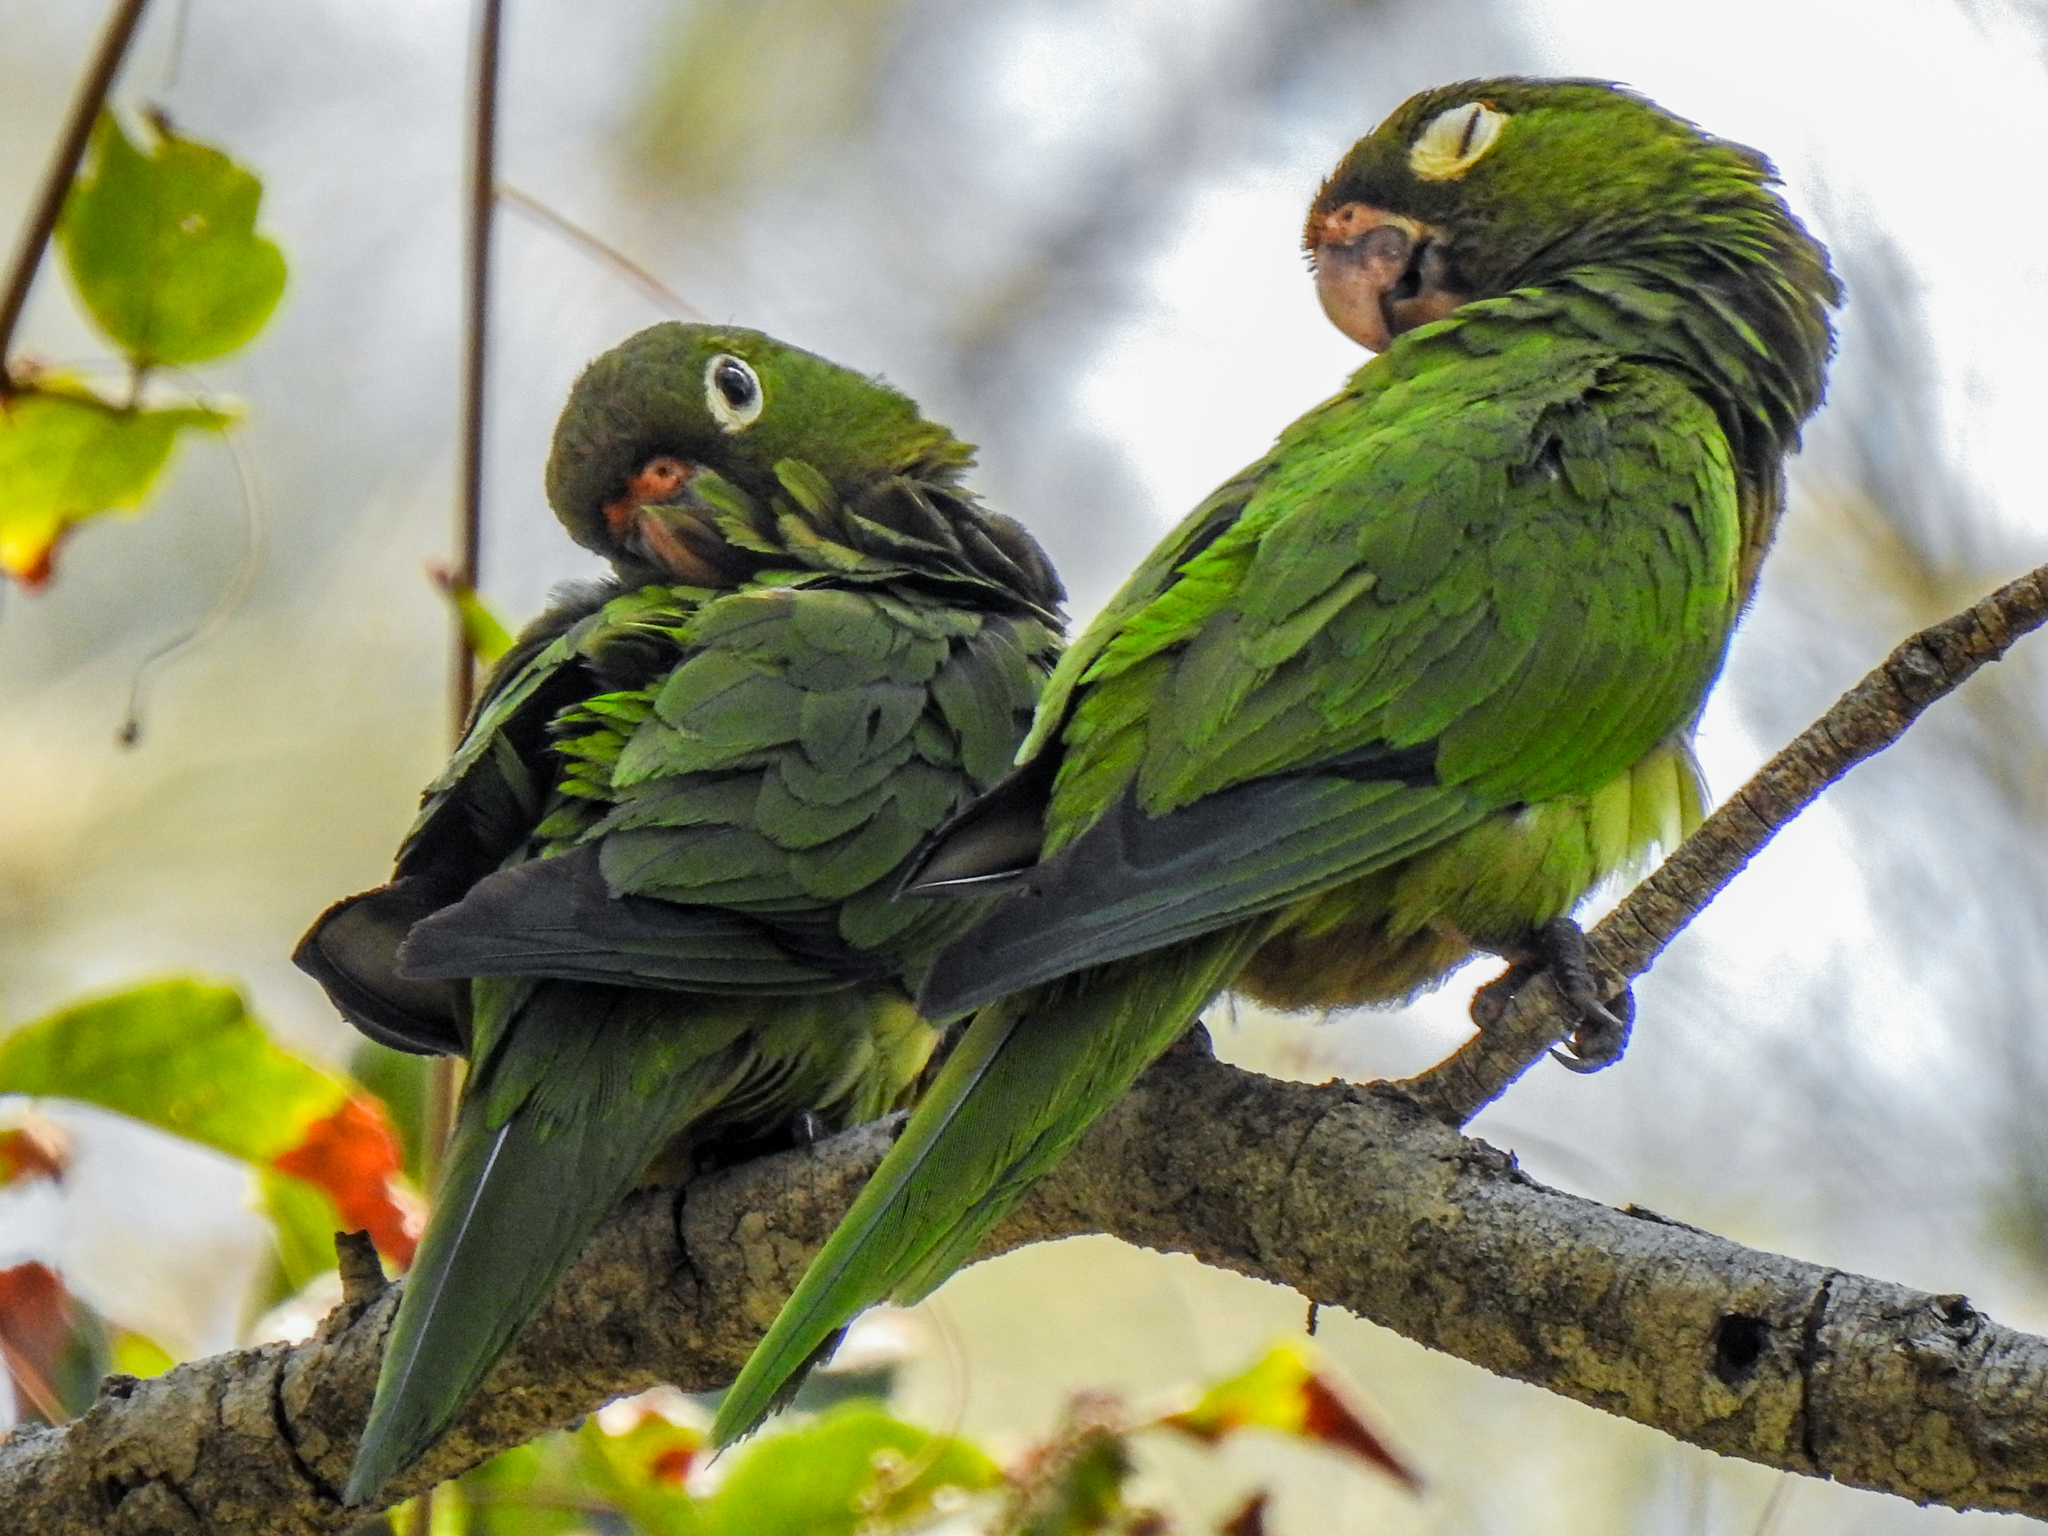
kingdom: Animalia
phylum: Chordata
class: Aves
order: Psittaciformes
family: Psittacidae
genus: Aratinga
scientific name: Aratinga nana
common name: Olive-throated parakeet
